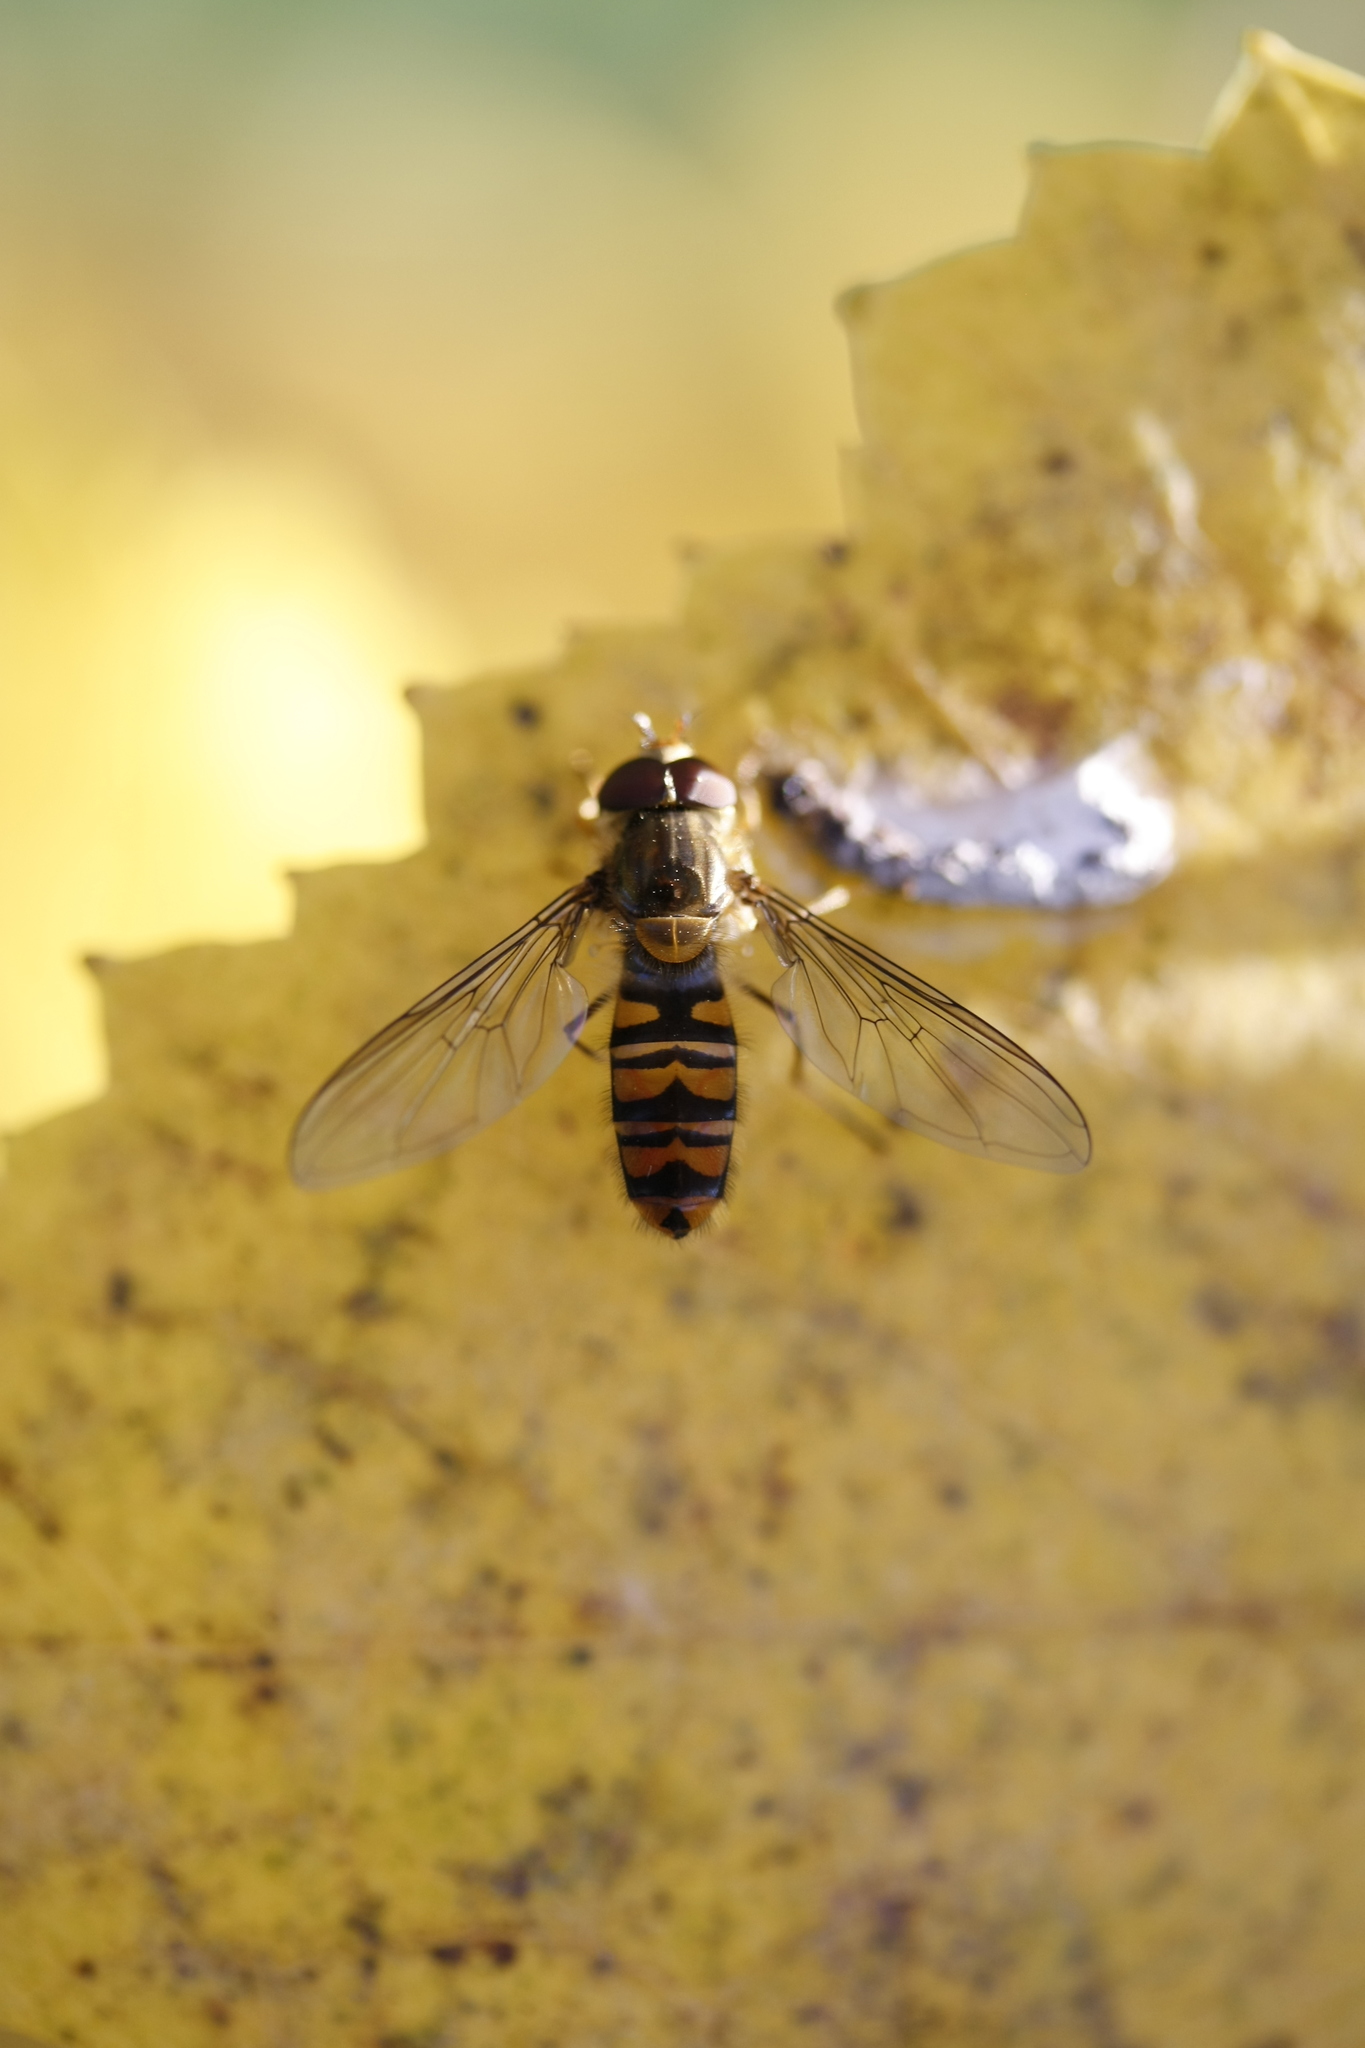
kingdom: Animalia
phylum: Arthropoda
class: Insecta
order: Diptera
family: Syrphidae
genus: Episyrphus
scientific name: Episyrphus balteatus
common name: Marmalade hoverfly
